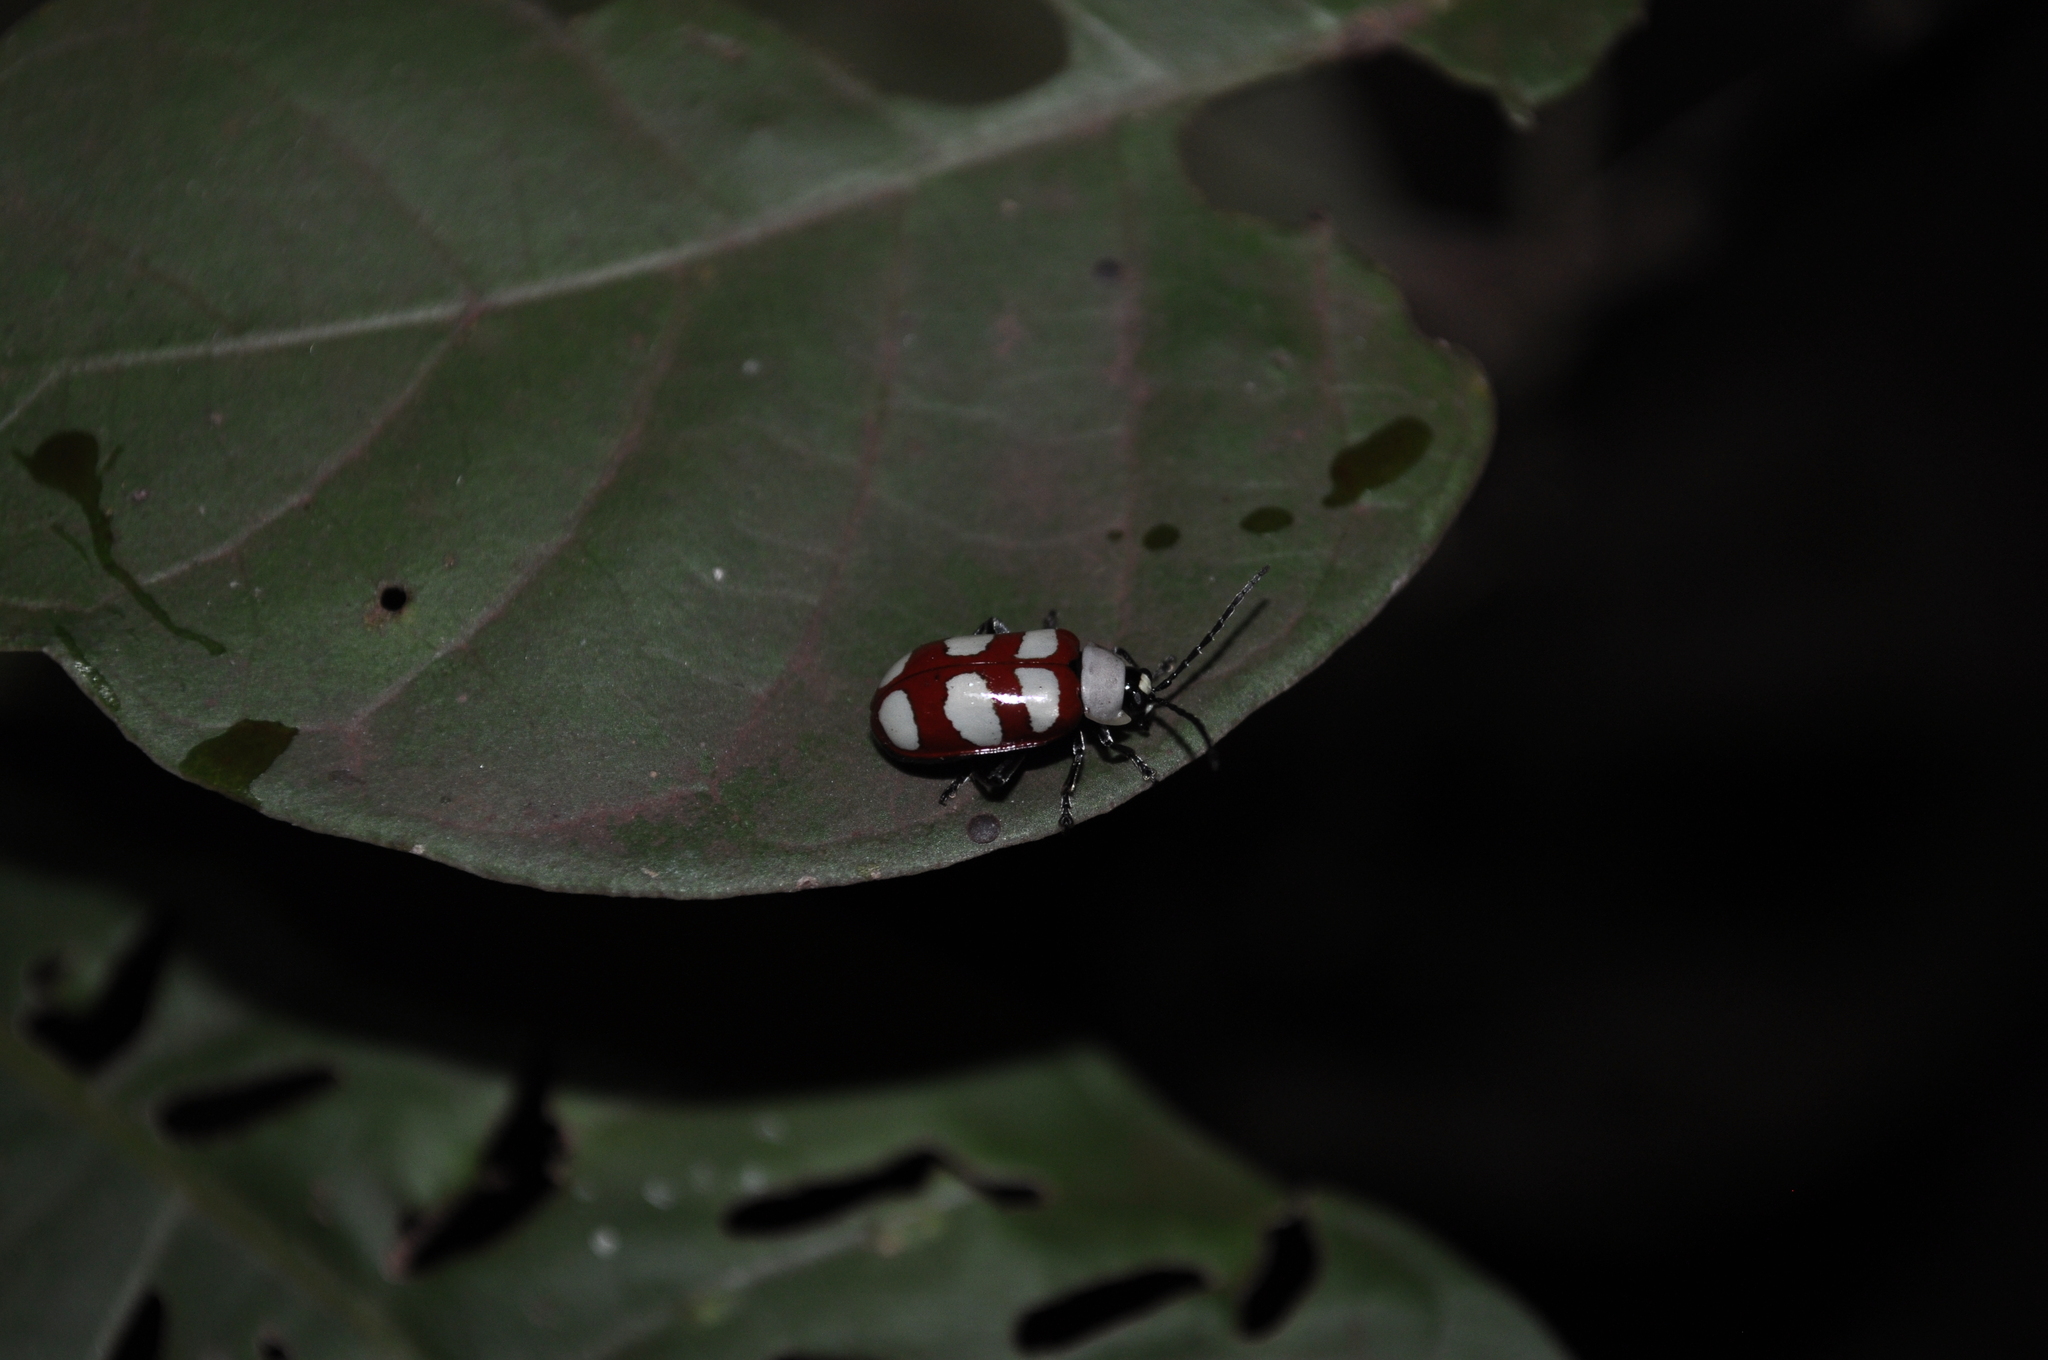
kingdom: Animalia
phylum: Arthropoda
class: Insecta
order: Coleoptera
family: Chrysomelidae
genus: Omophoita
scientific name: Omophoita personata
